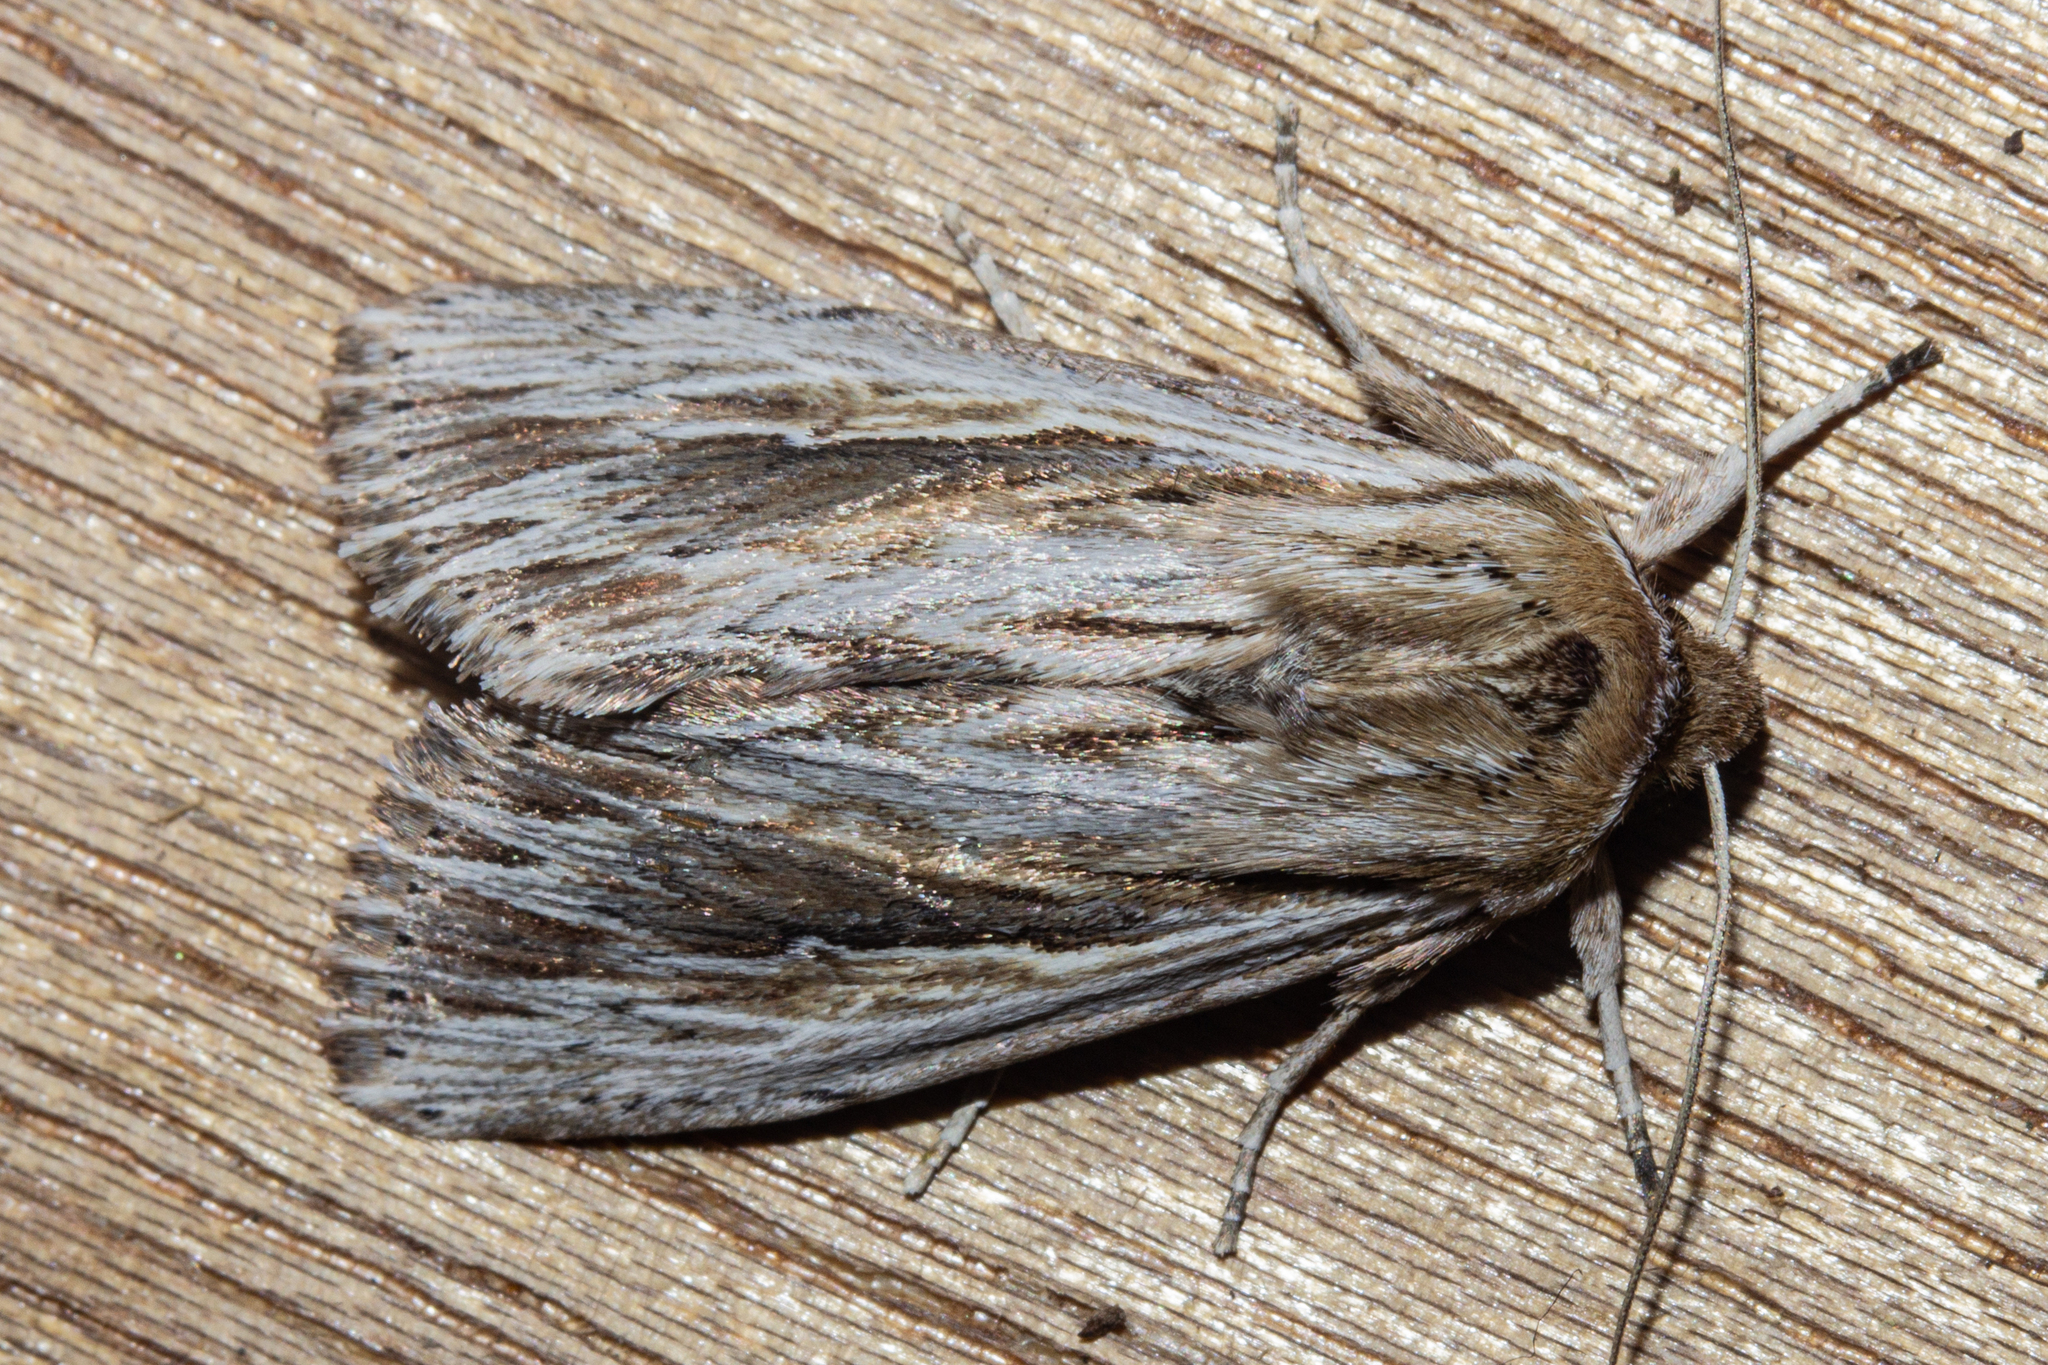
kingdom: Animalia
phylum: Arthropoda
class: Insecta
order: Lepidoptera
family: Noctuidae
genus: Persectania
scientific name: Persectania aversa
